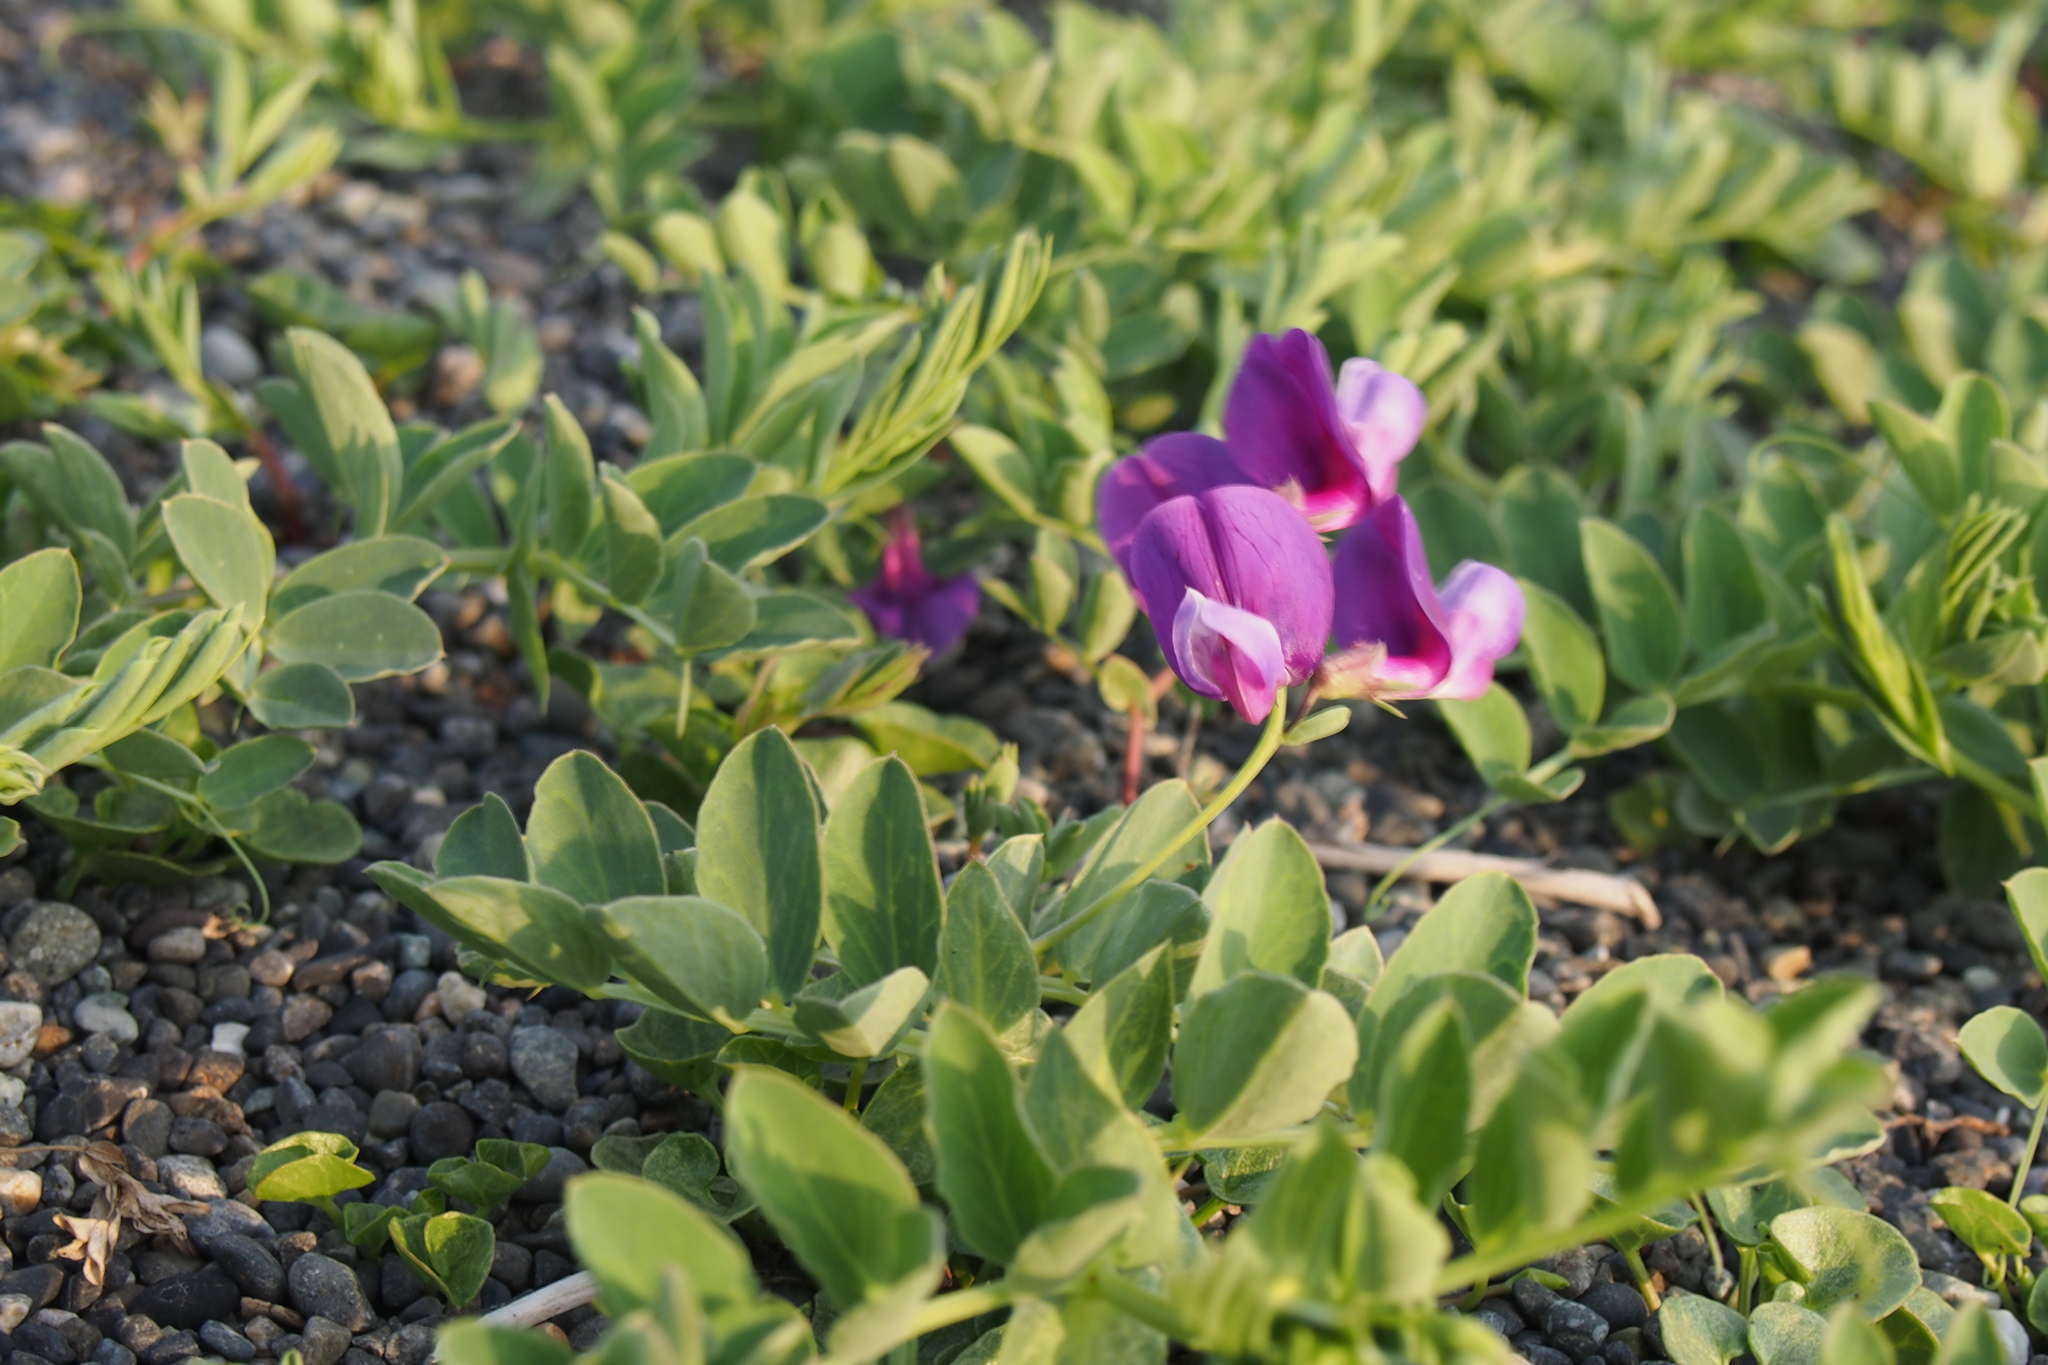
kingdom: Plantae
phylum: Tracheophyta
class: Magnoliopsida
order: Fabales
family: Fabaceae
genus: Lathyrus
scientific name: Lathyrus japonicus
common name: Sea pea
